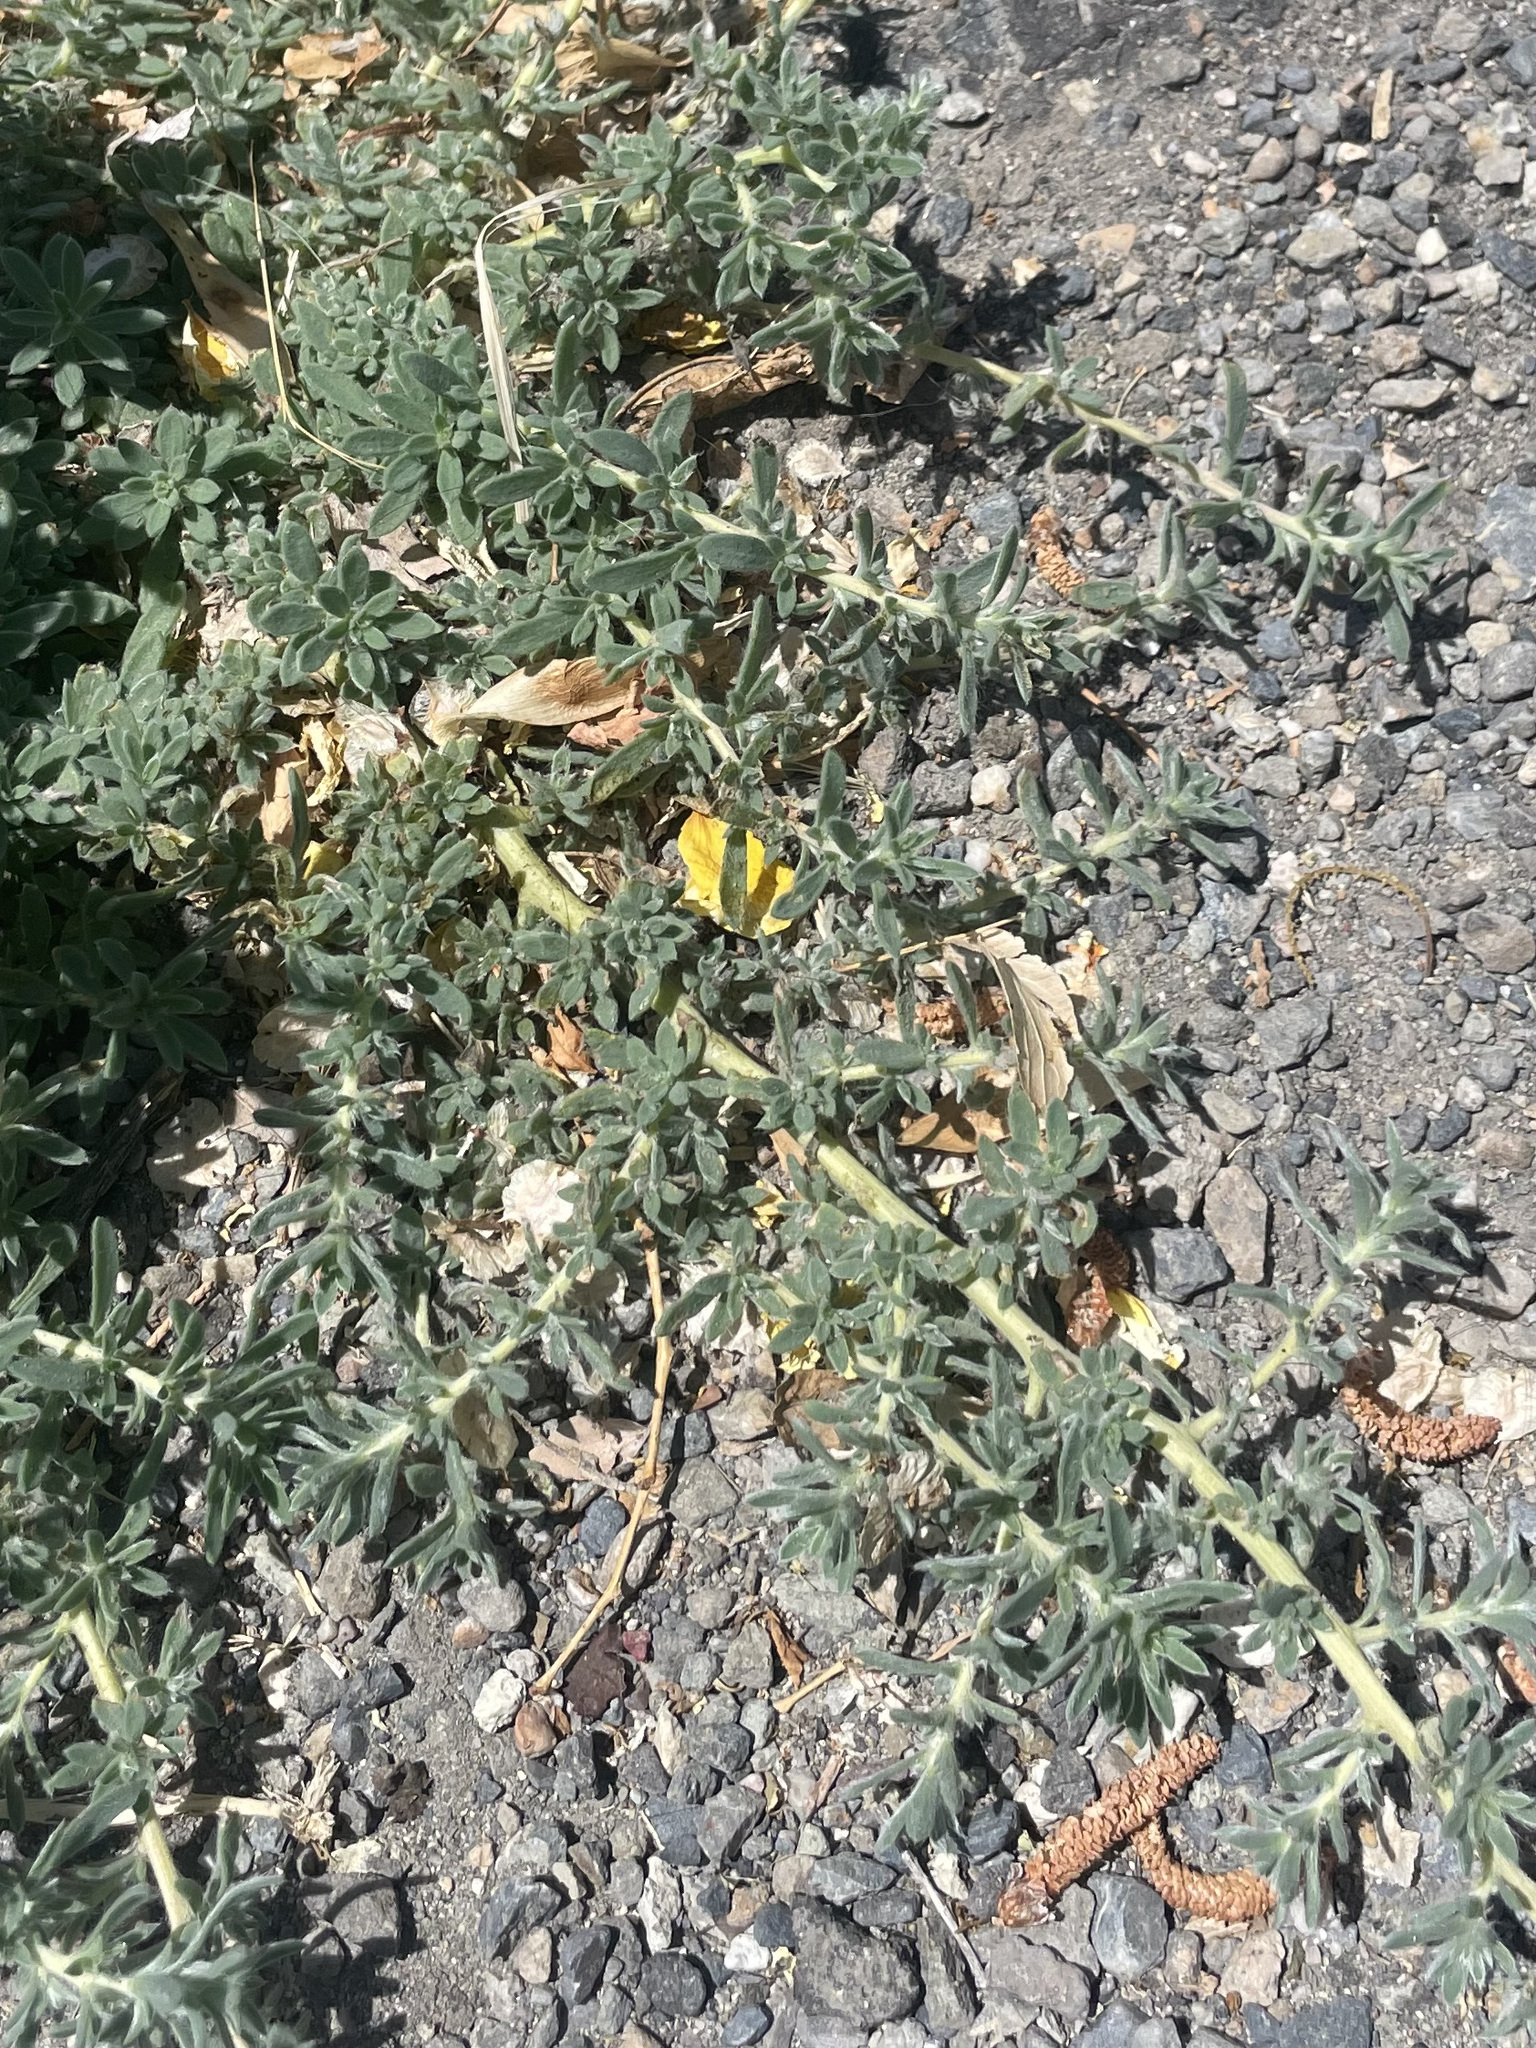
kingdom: Plantae
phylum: Tracheophyta
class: Magnoliopsida
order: Caryophyllales
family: Amaranthaceae
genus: Bassia
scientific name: Bassia hyssopifolia
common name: Fivehorn smotherweed
